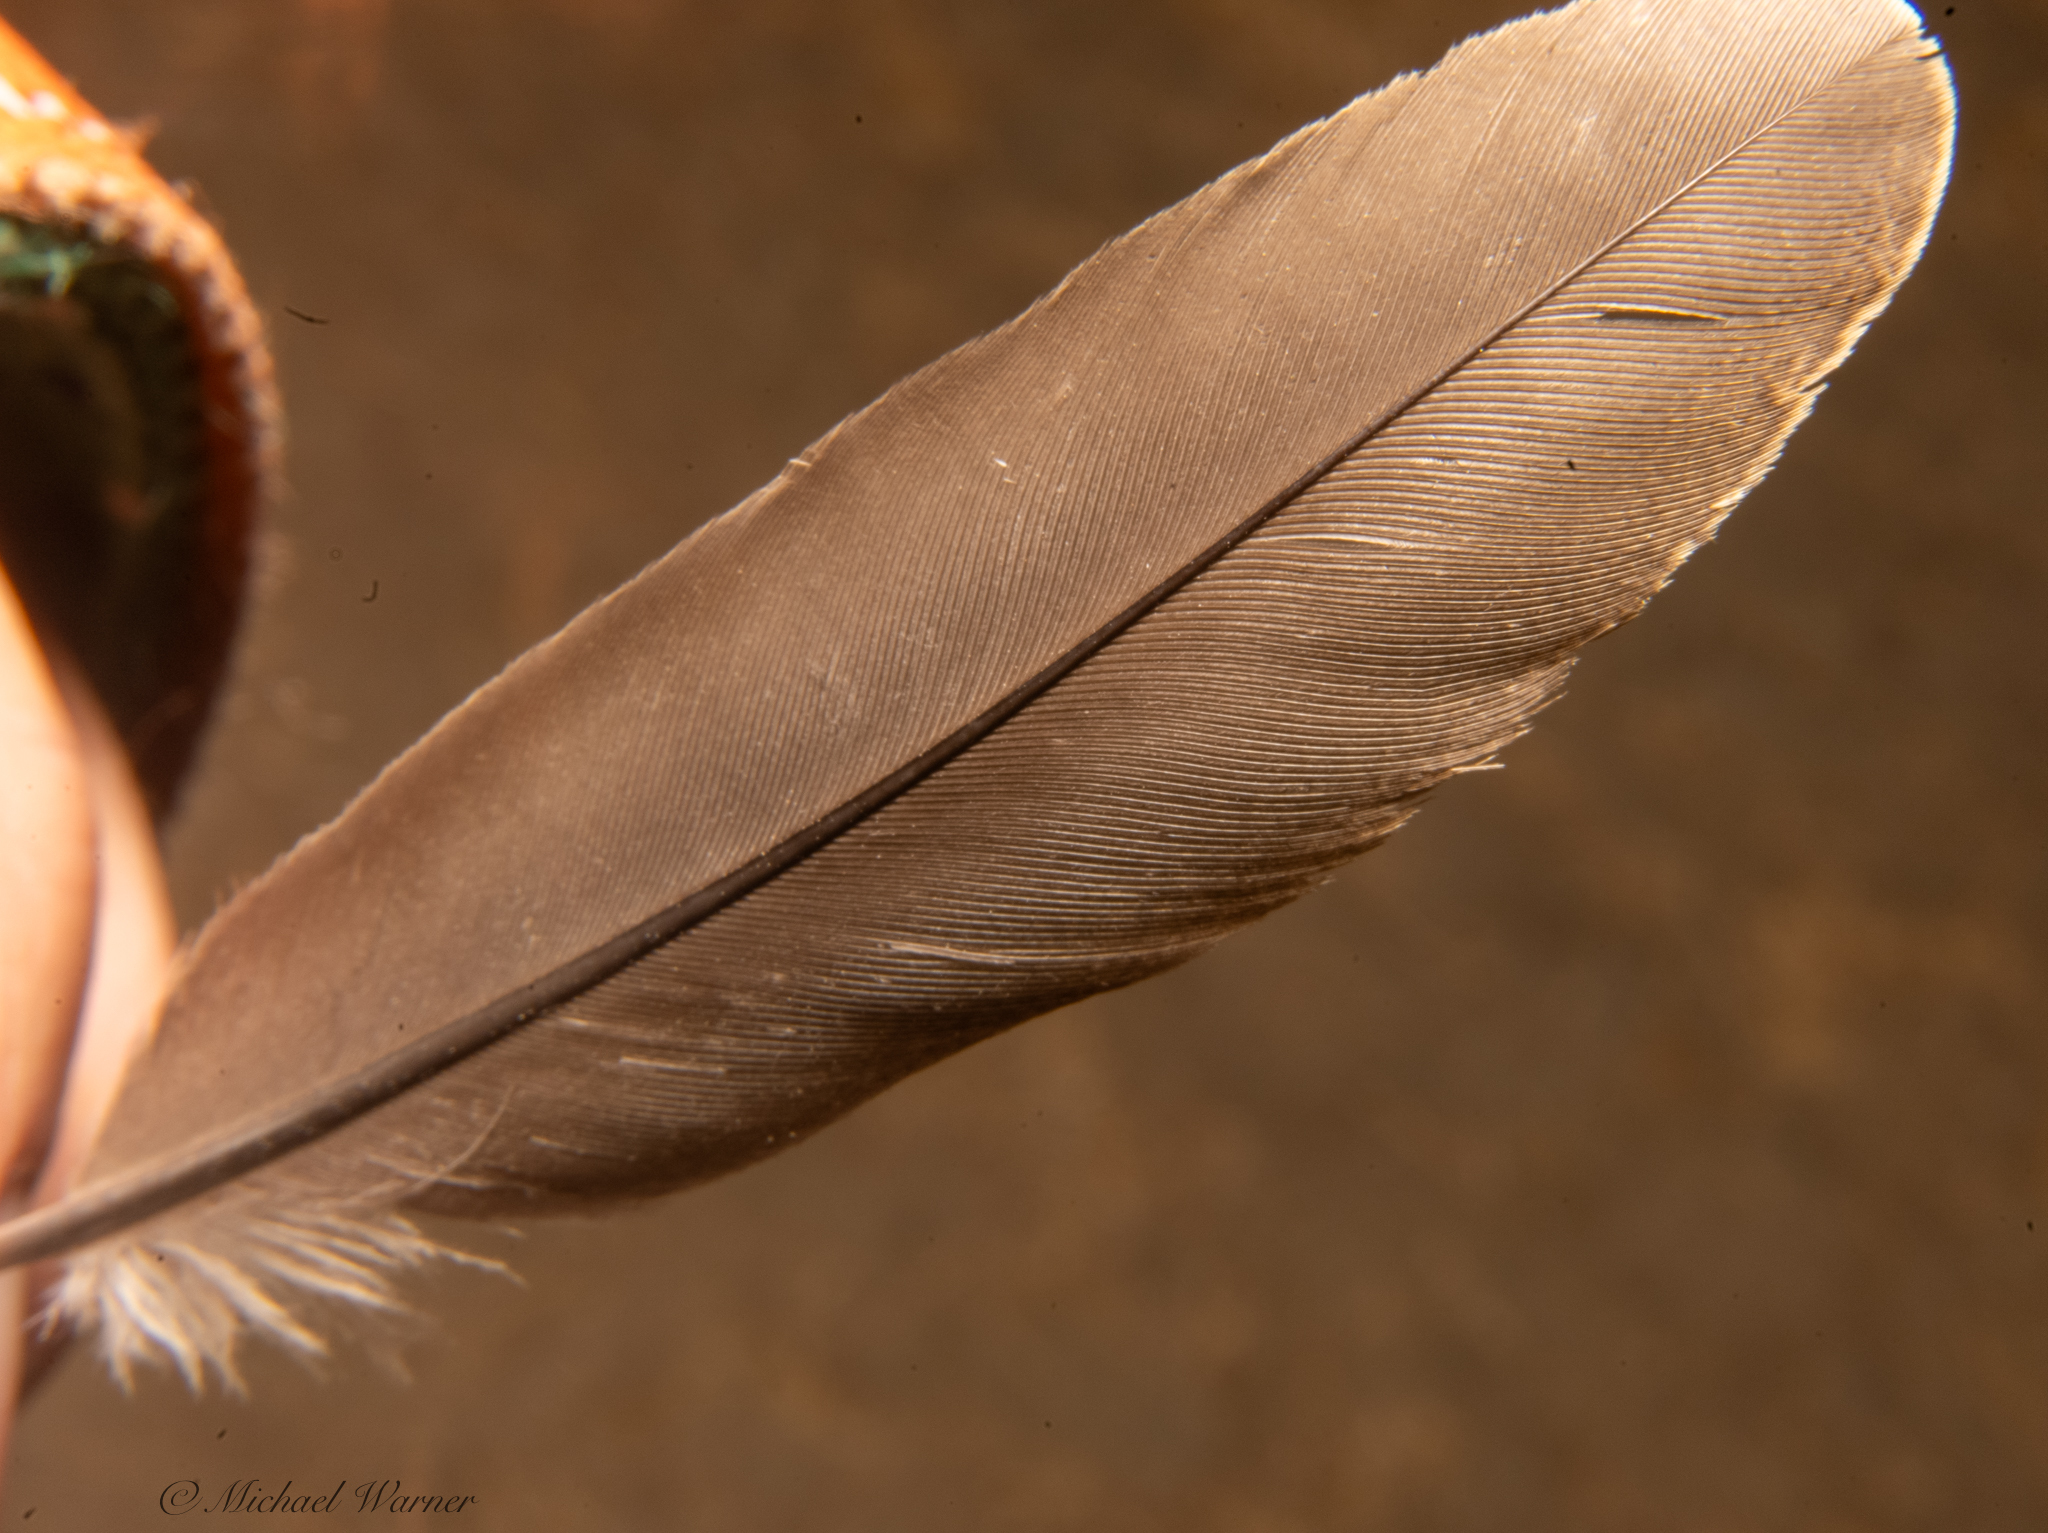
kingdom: Animalia
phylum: Chordata
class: Aves
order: Galliformes
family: Odontophoridae
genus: Callipepla
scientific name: Callipepla californica
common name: California quail
